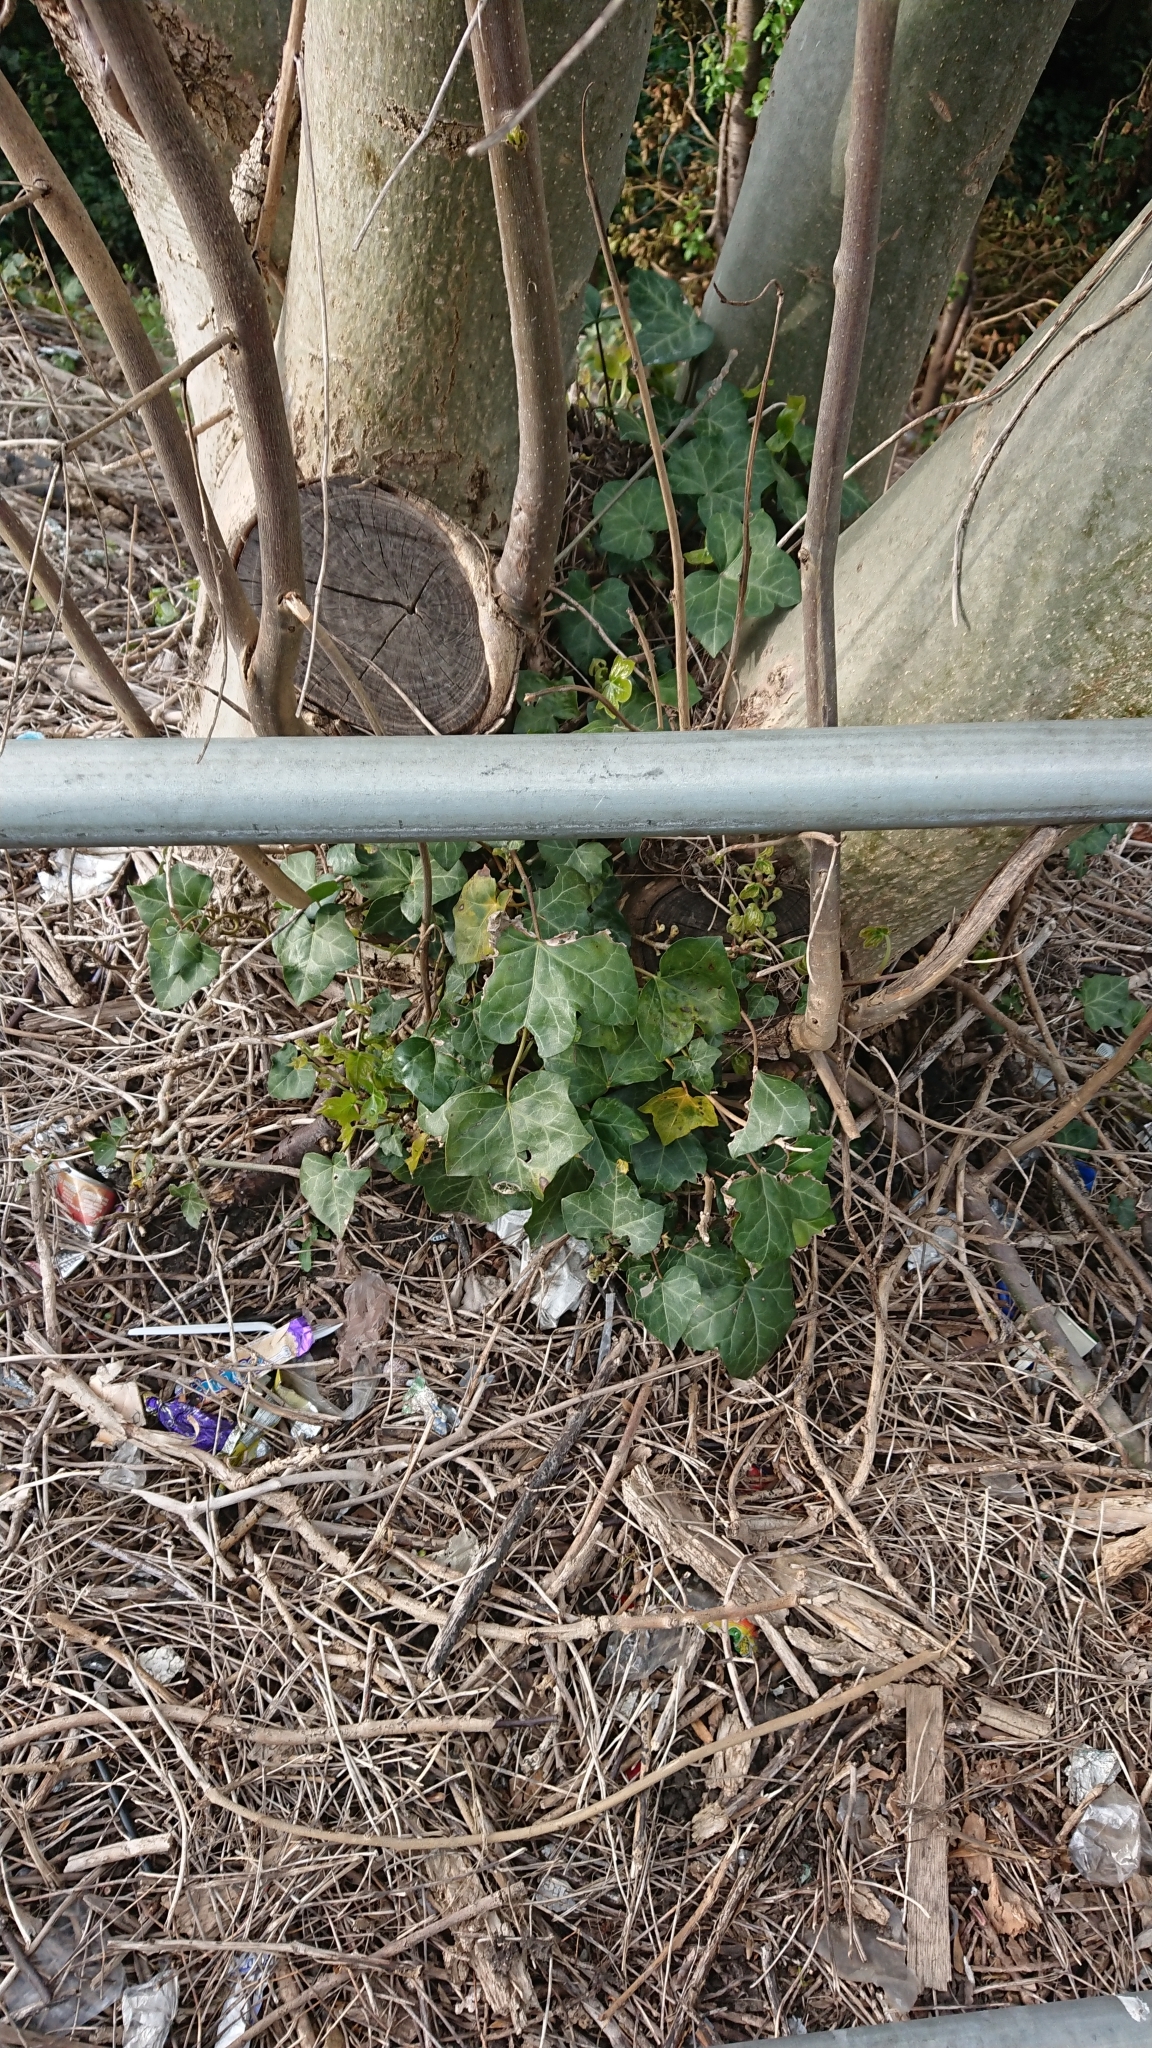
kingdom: Plantae
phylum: Tracheophyta
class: Magnoliopsida
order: Apiales
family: Araliaceae
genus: Hedera
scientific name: Hedera helix
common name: Ivy
